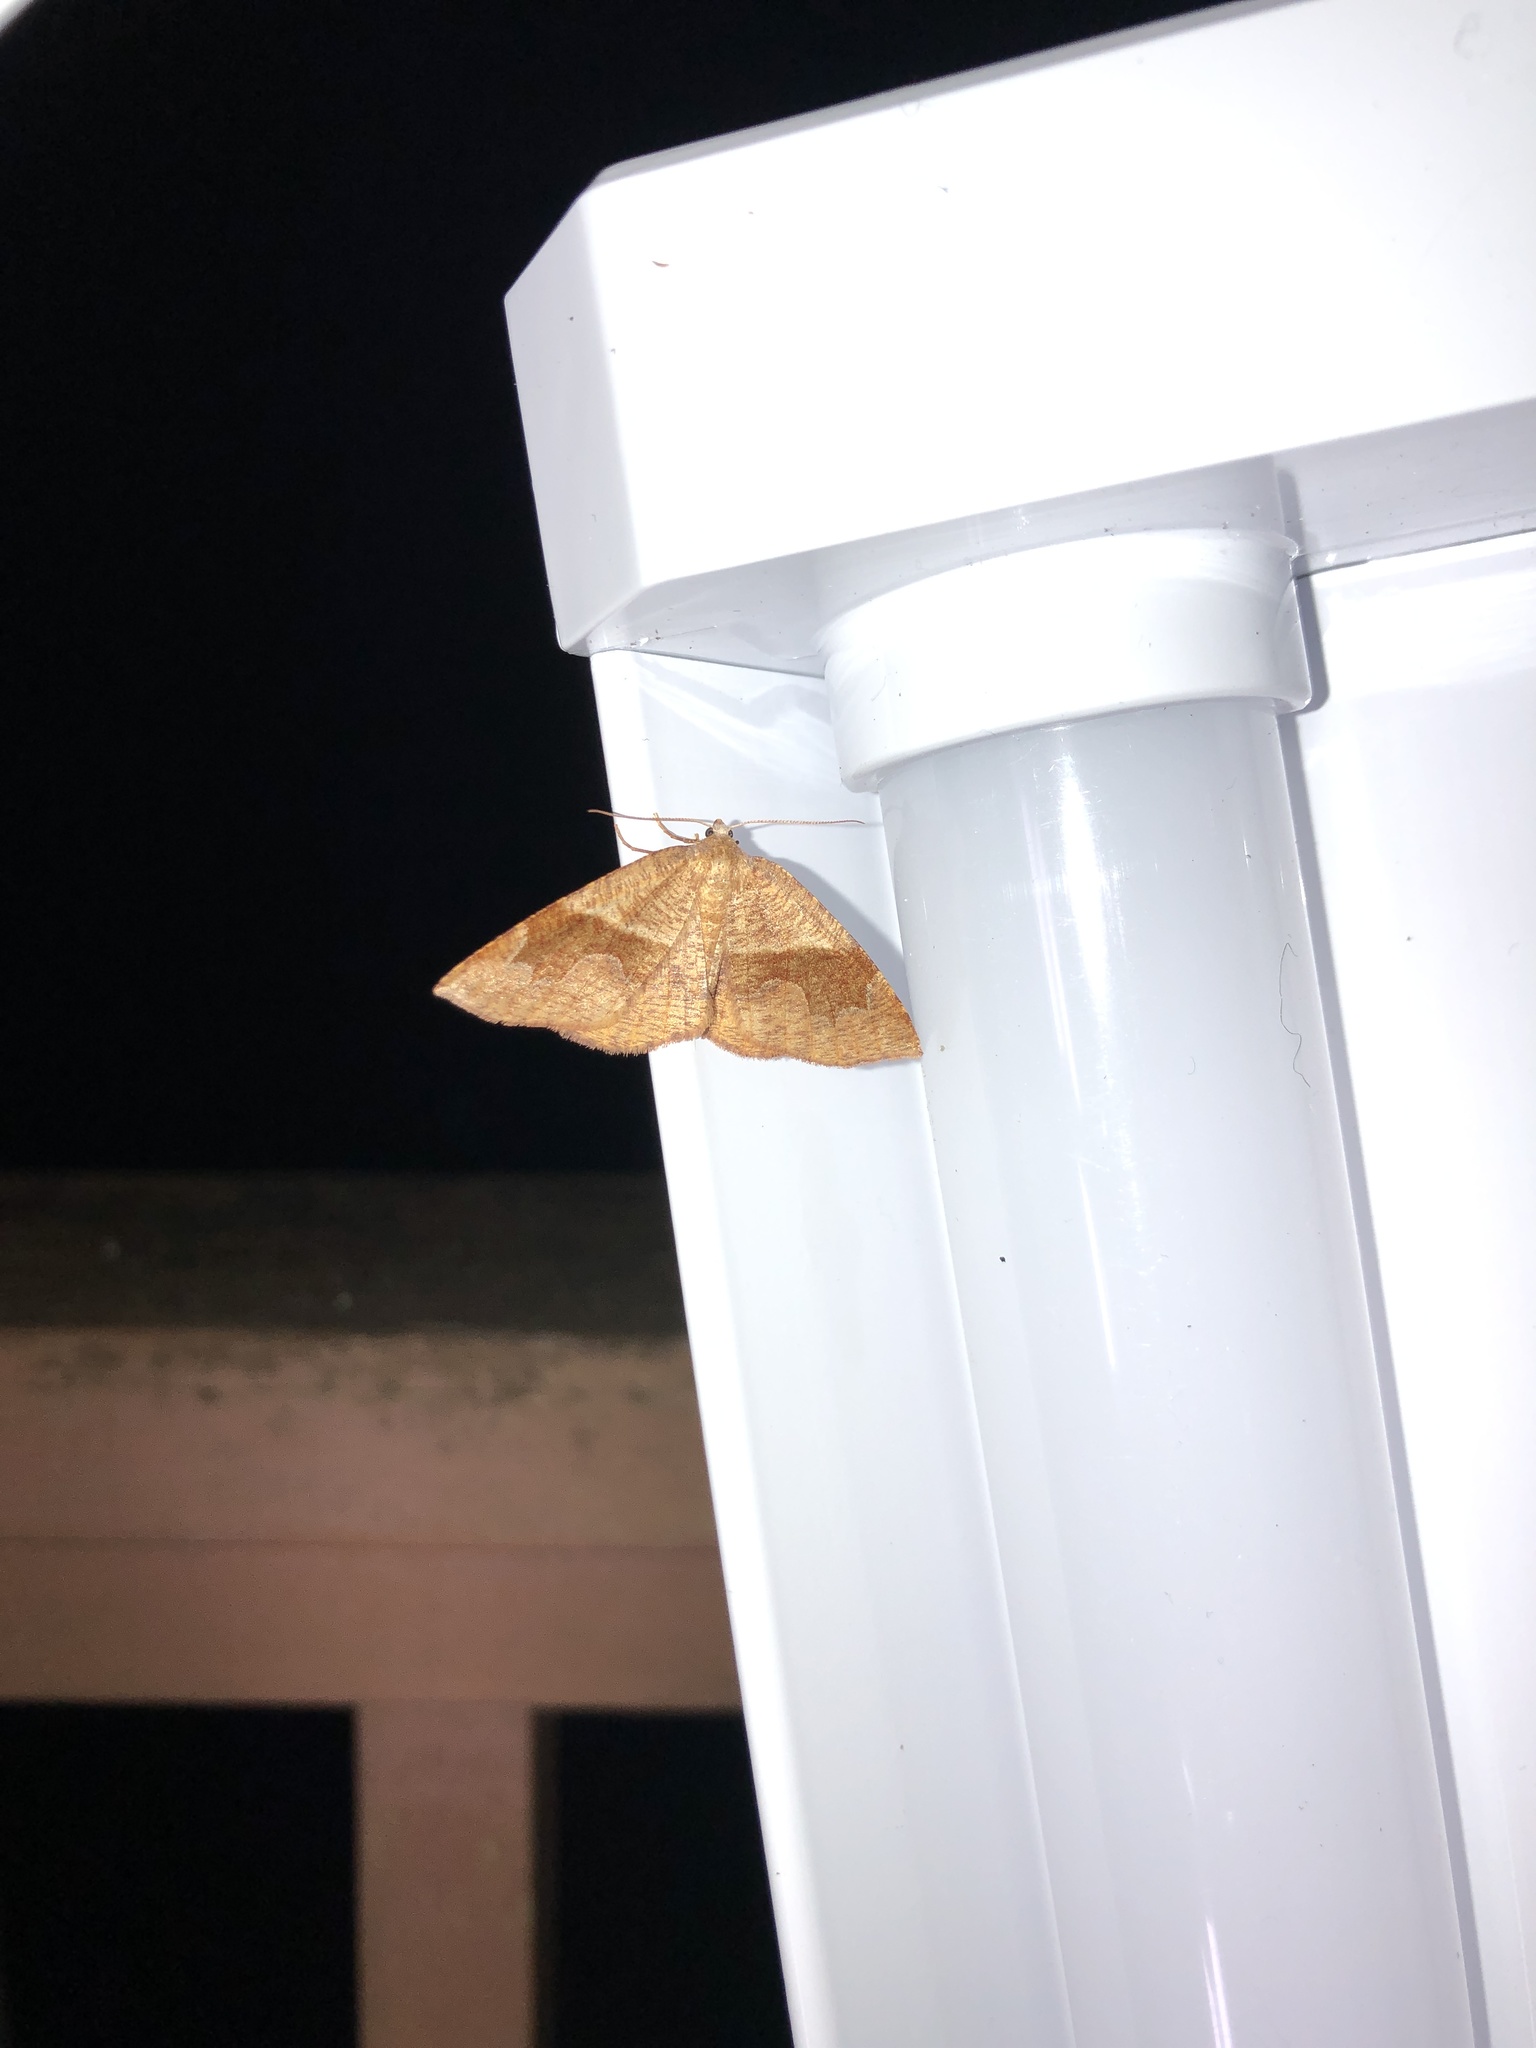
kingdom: Animalia
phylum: Arthropoda
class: Insecta
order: Lepidoptera
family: Geometridae
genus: Plagodis
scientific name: Plagodis pulveraria
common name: Barred umber
